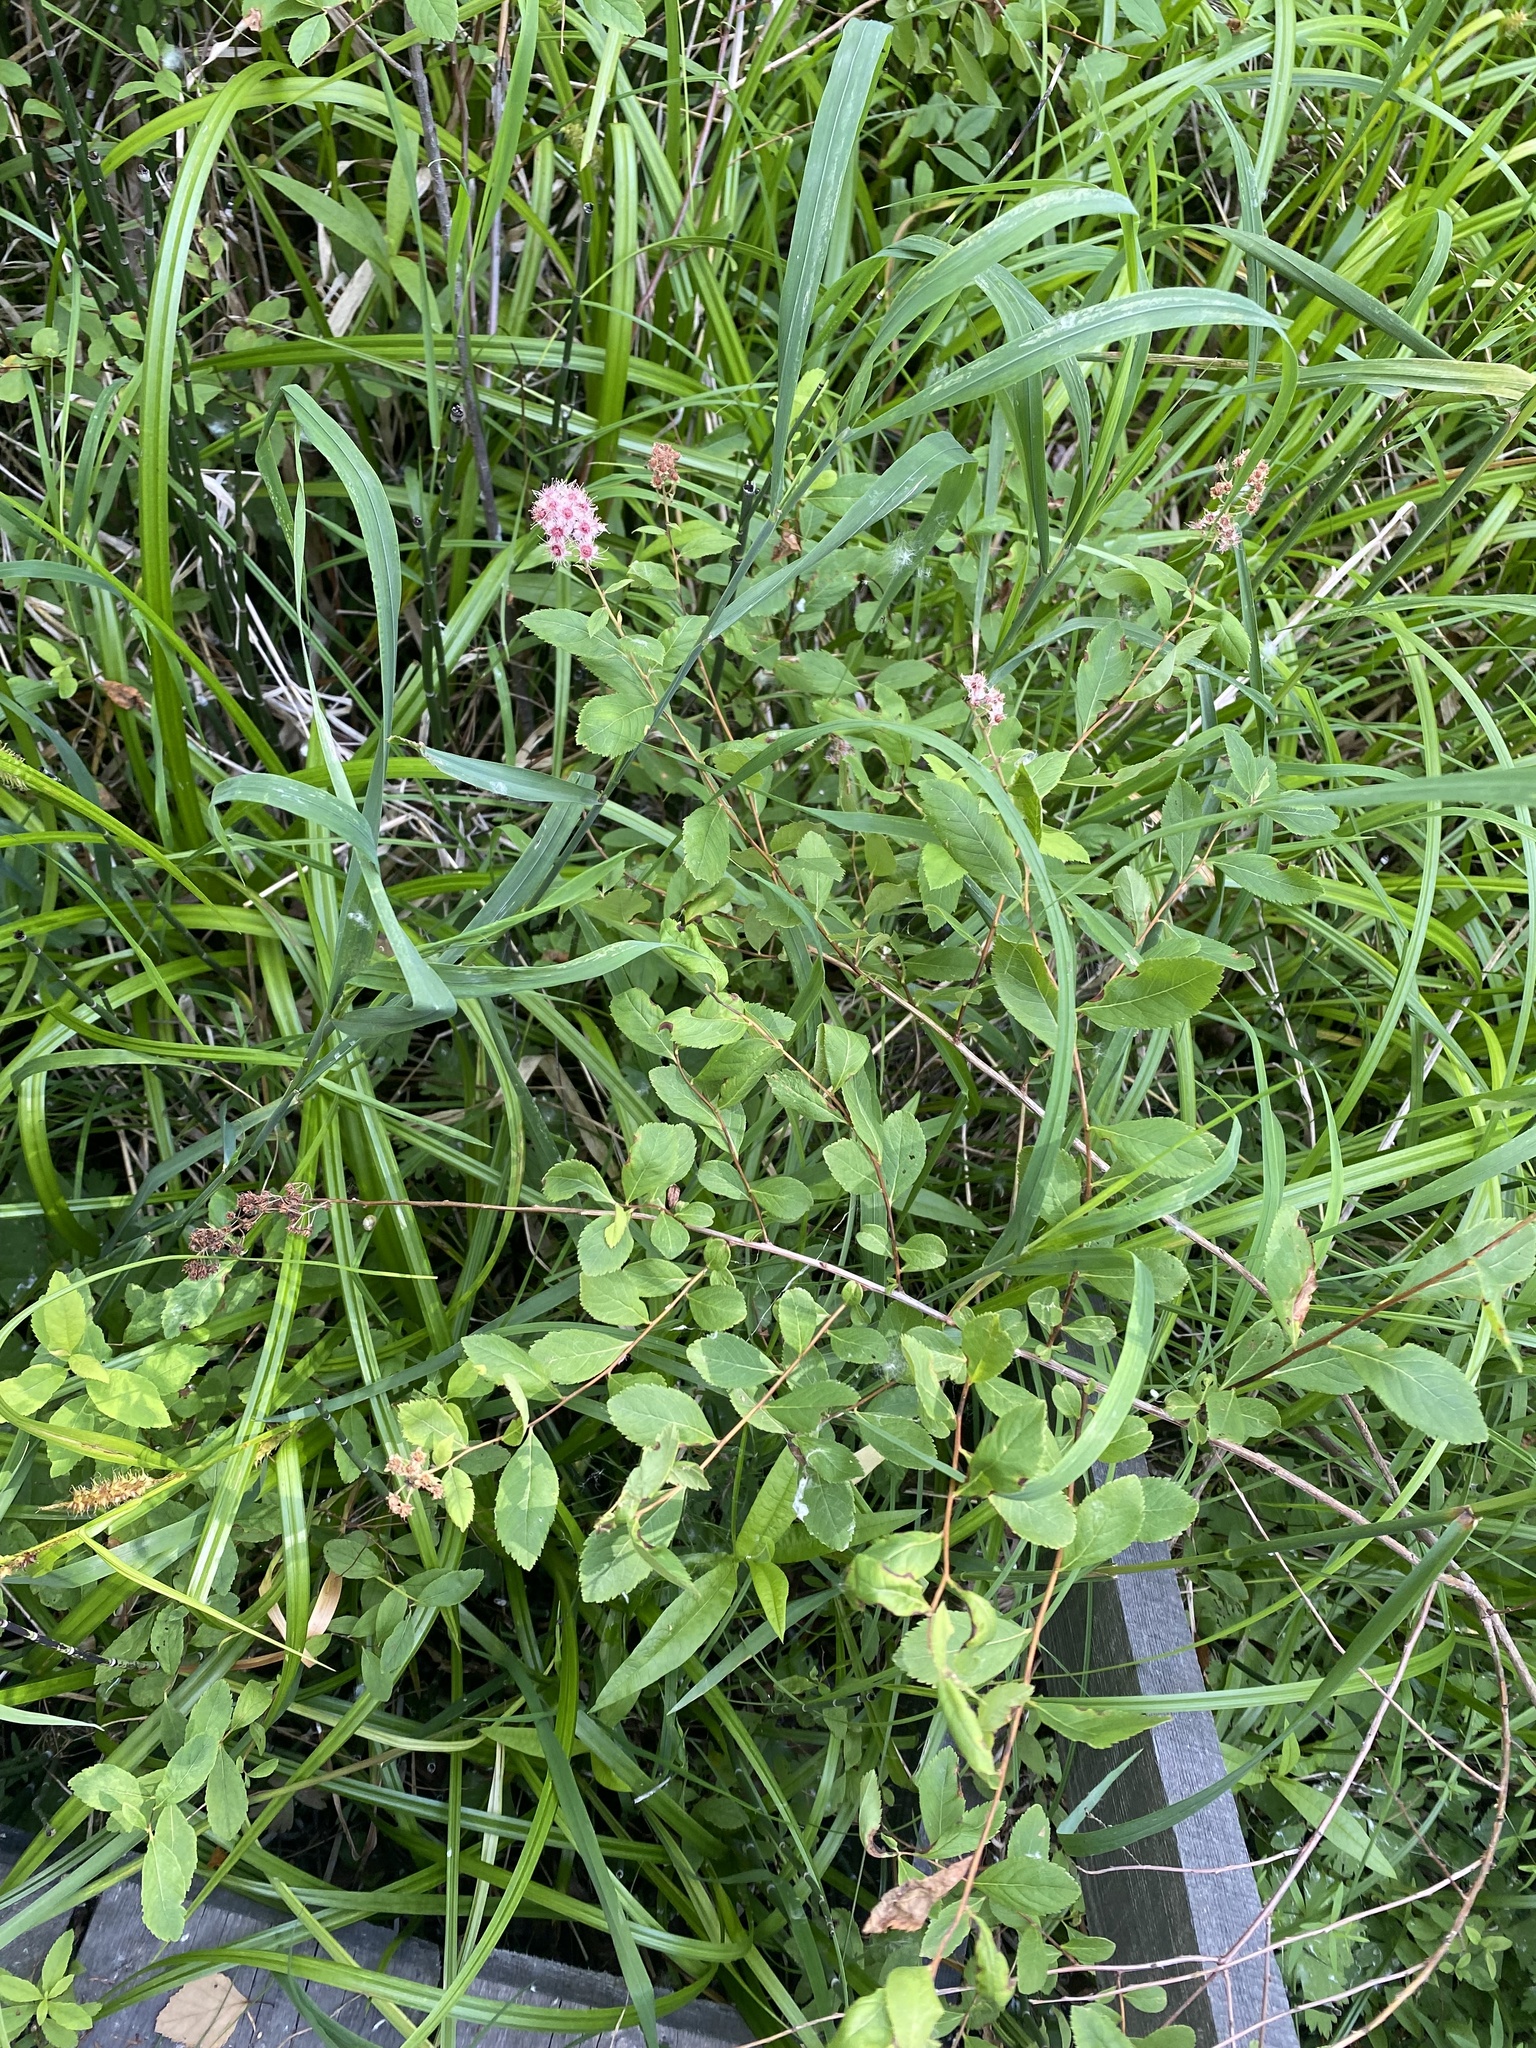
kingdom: Plantae
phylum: Tracheophyta
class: Magnoliopsida
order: Rosales
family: Rosaceae
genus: Spiraea
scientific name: Spiraea salicifolia
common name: Bridewort
